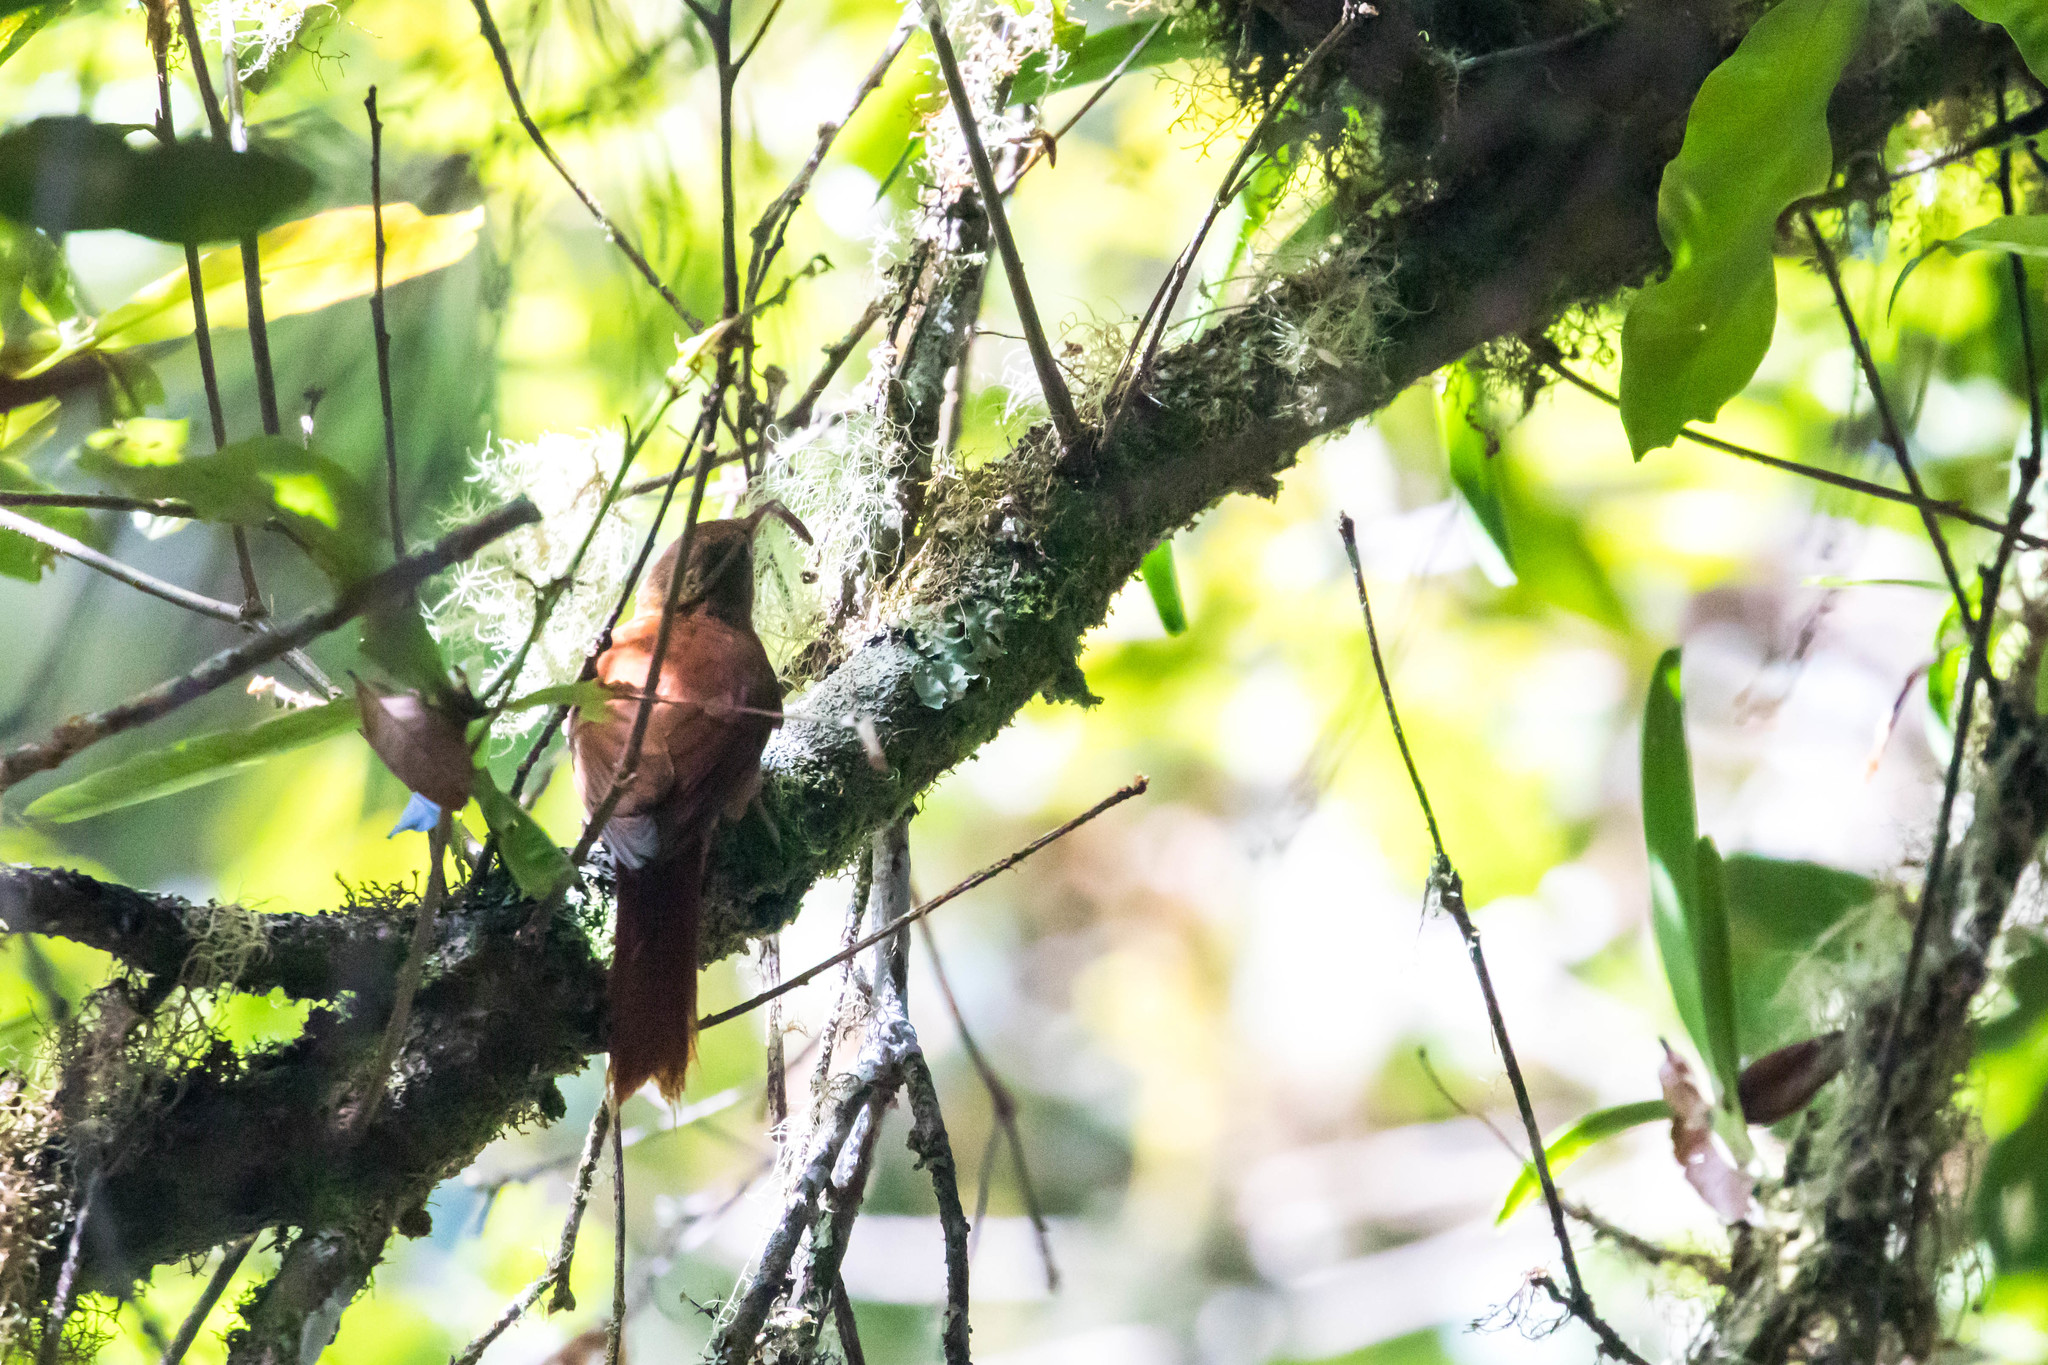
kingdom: Animalia
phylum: Chordata
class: Aves
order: Passeriformes
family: Furnariidae
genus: Margarornis
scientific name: Margarornis rubiginosus
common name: Ruddy treerunner
